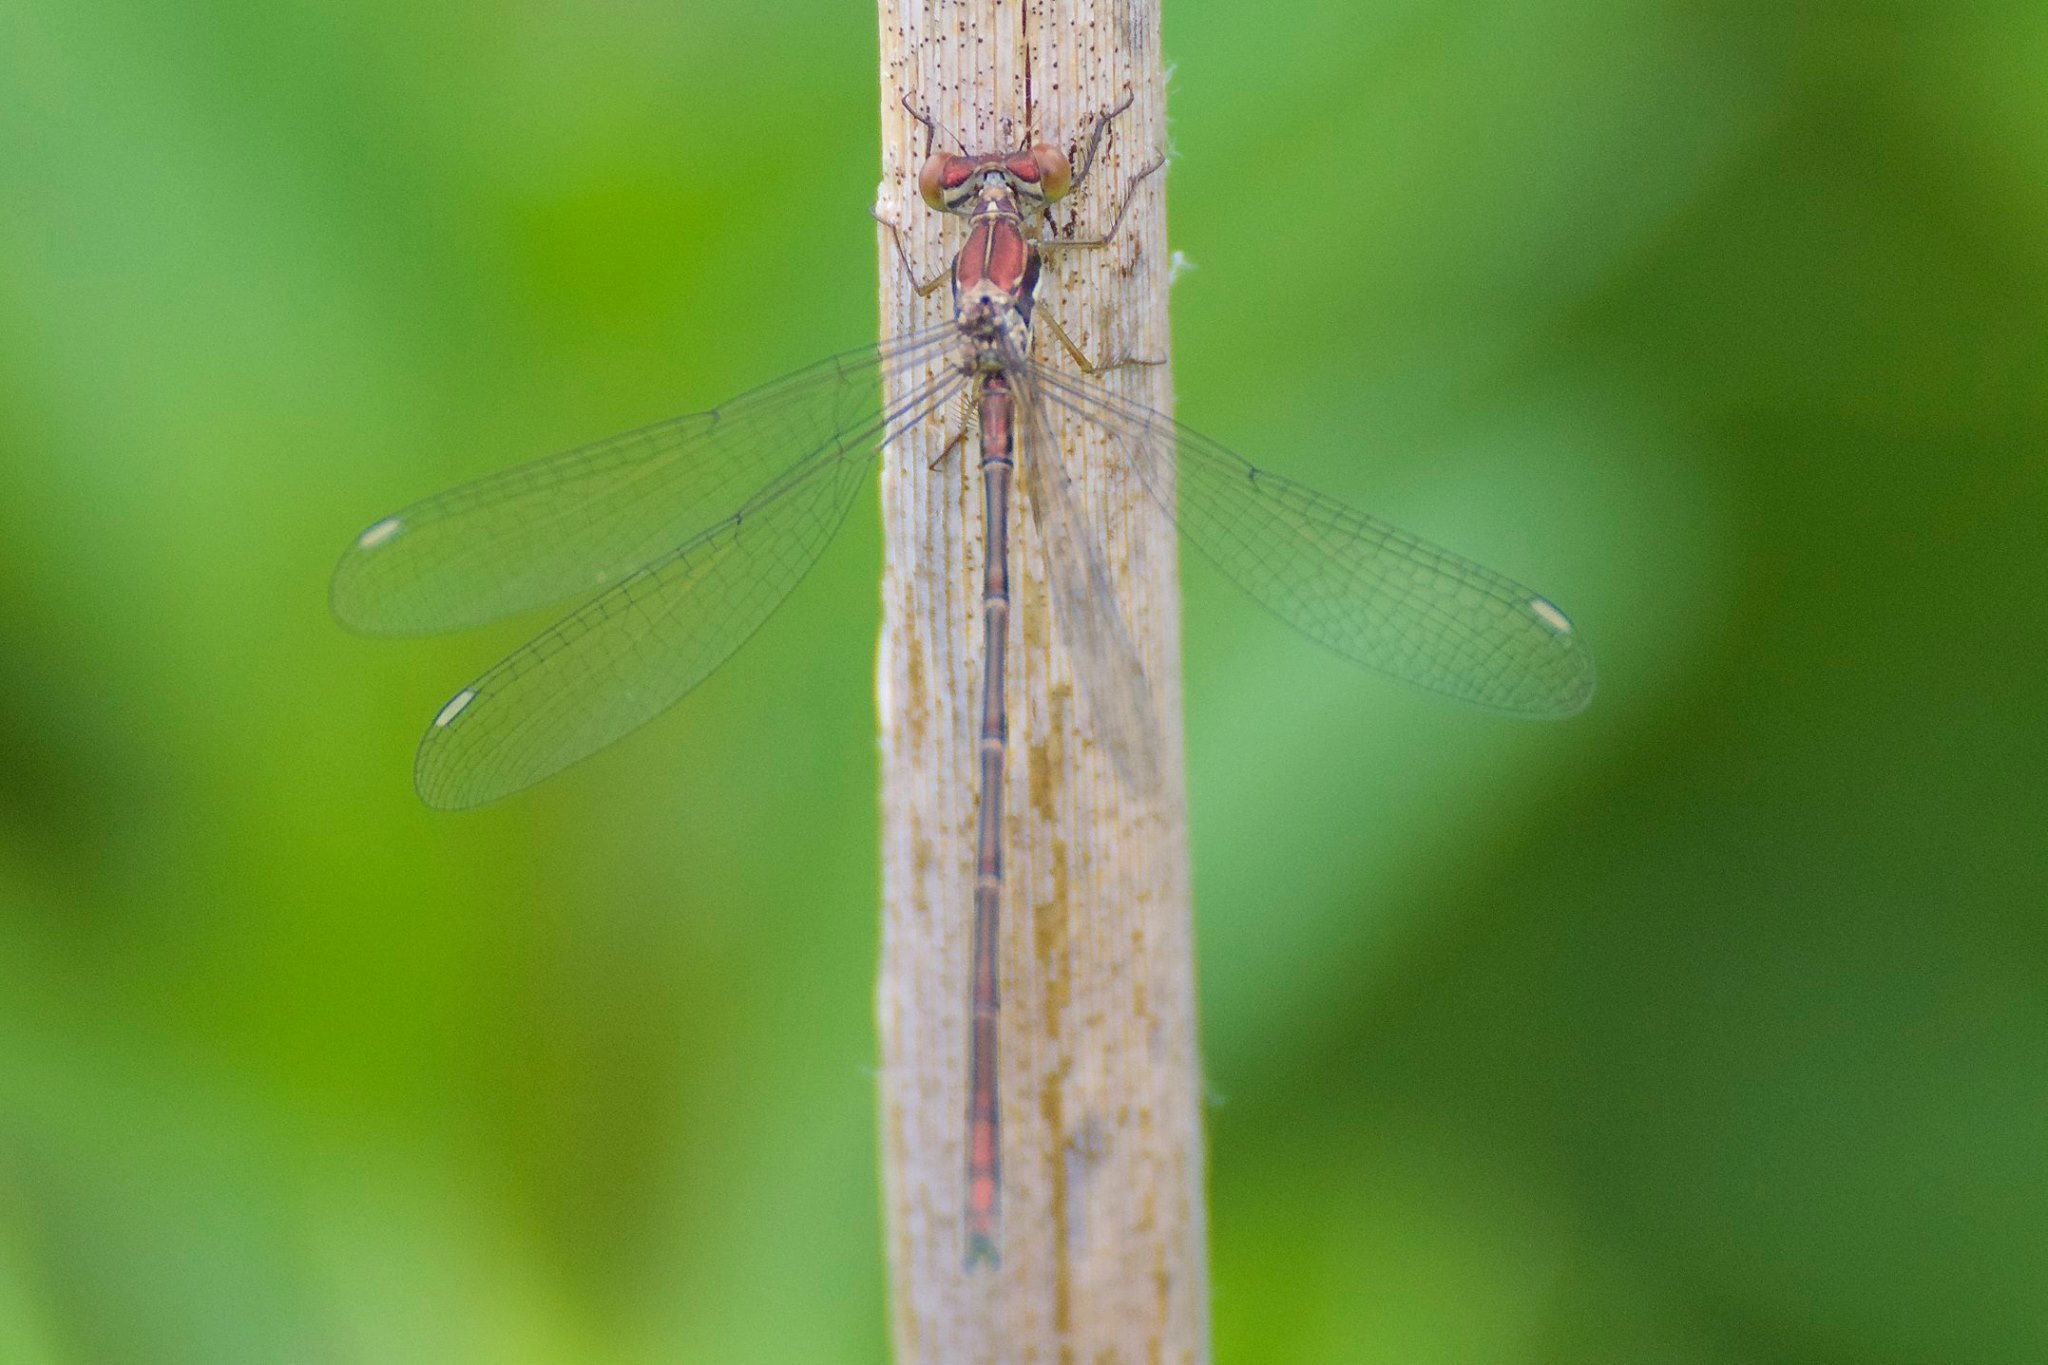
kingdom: Animalia
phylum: Arthropoda
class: Insecta
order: Odonata
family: Lestidae
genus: Lestes
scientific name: Lestes congener
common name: Spotted spreadwing
